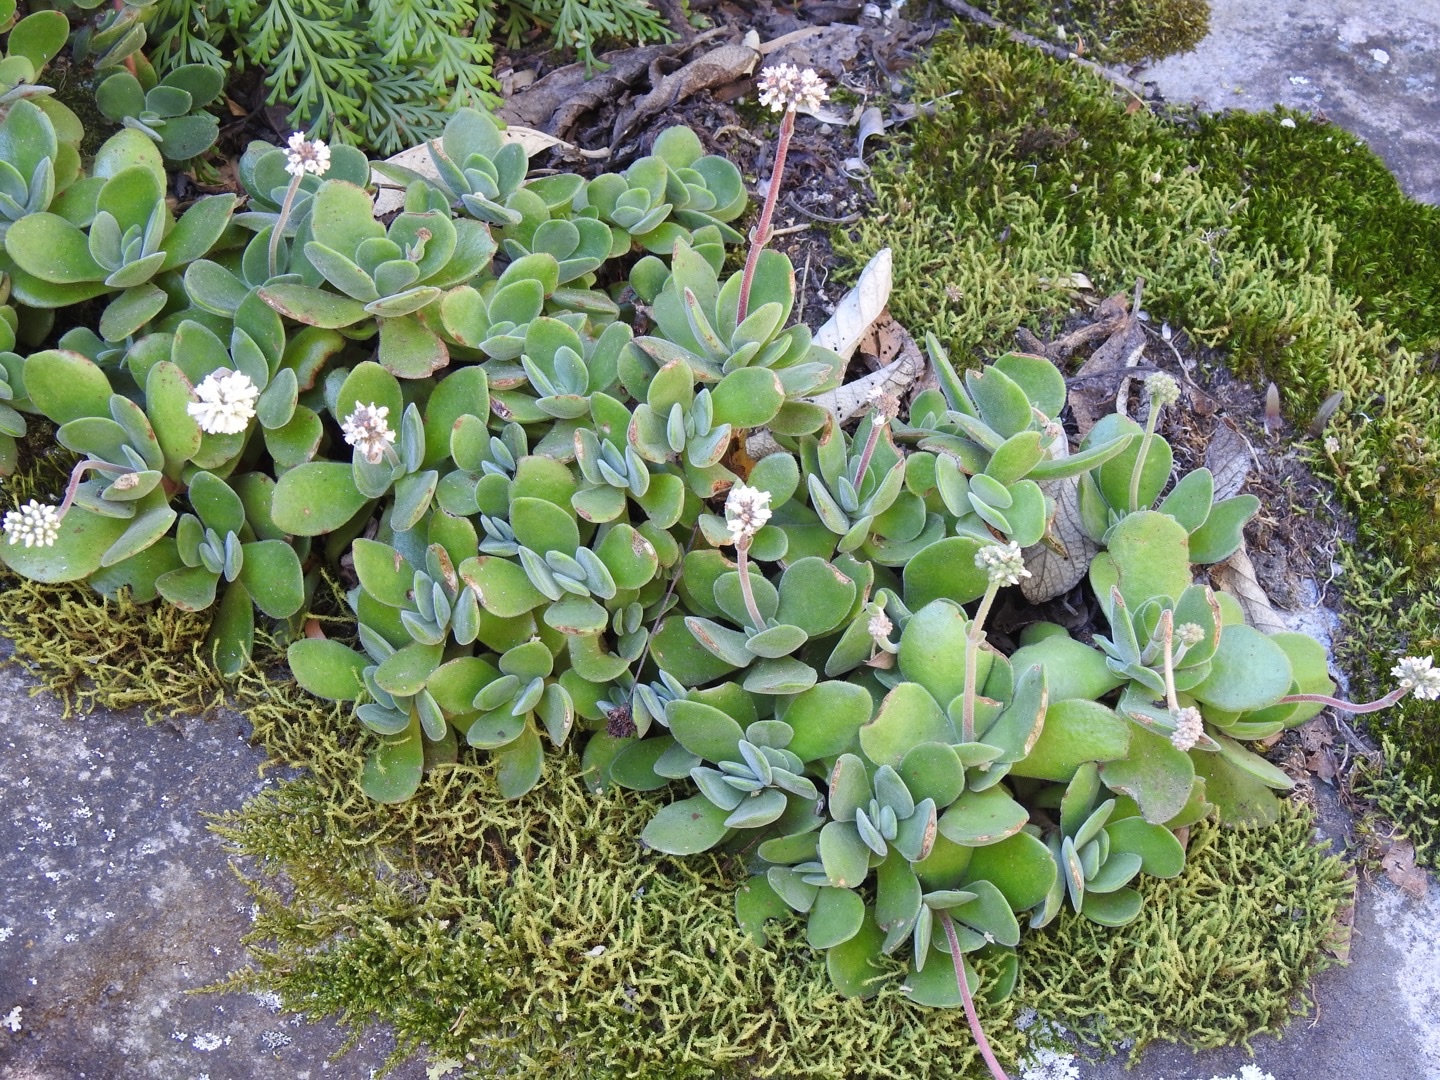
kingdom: Plantae
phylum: Tracheophyta
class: Magnoliopsida
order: Saxifragales
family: Crassulaceae
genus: Crassula
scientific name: Crassula globularioides
